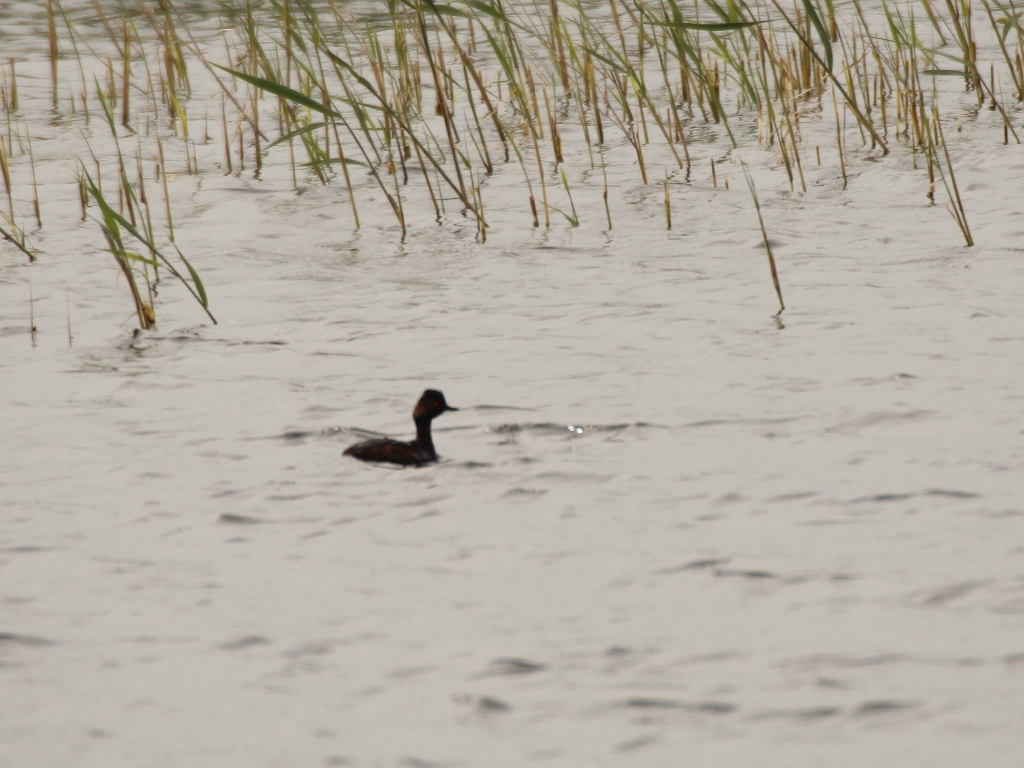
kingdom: Animalia
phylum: Chordata
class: Aves
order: Podicipediformes
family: Podicipedidae
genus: Podiceps
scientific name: Podiceps nigricollis
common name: Black-necked grebe
